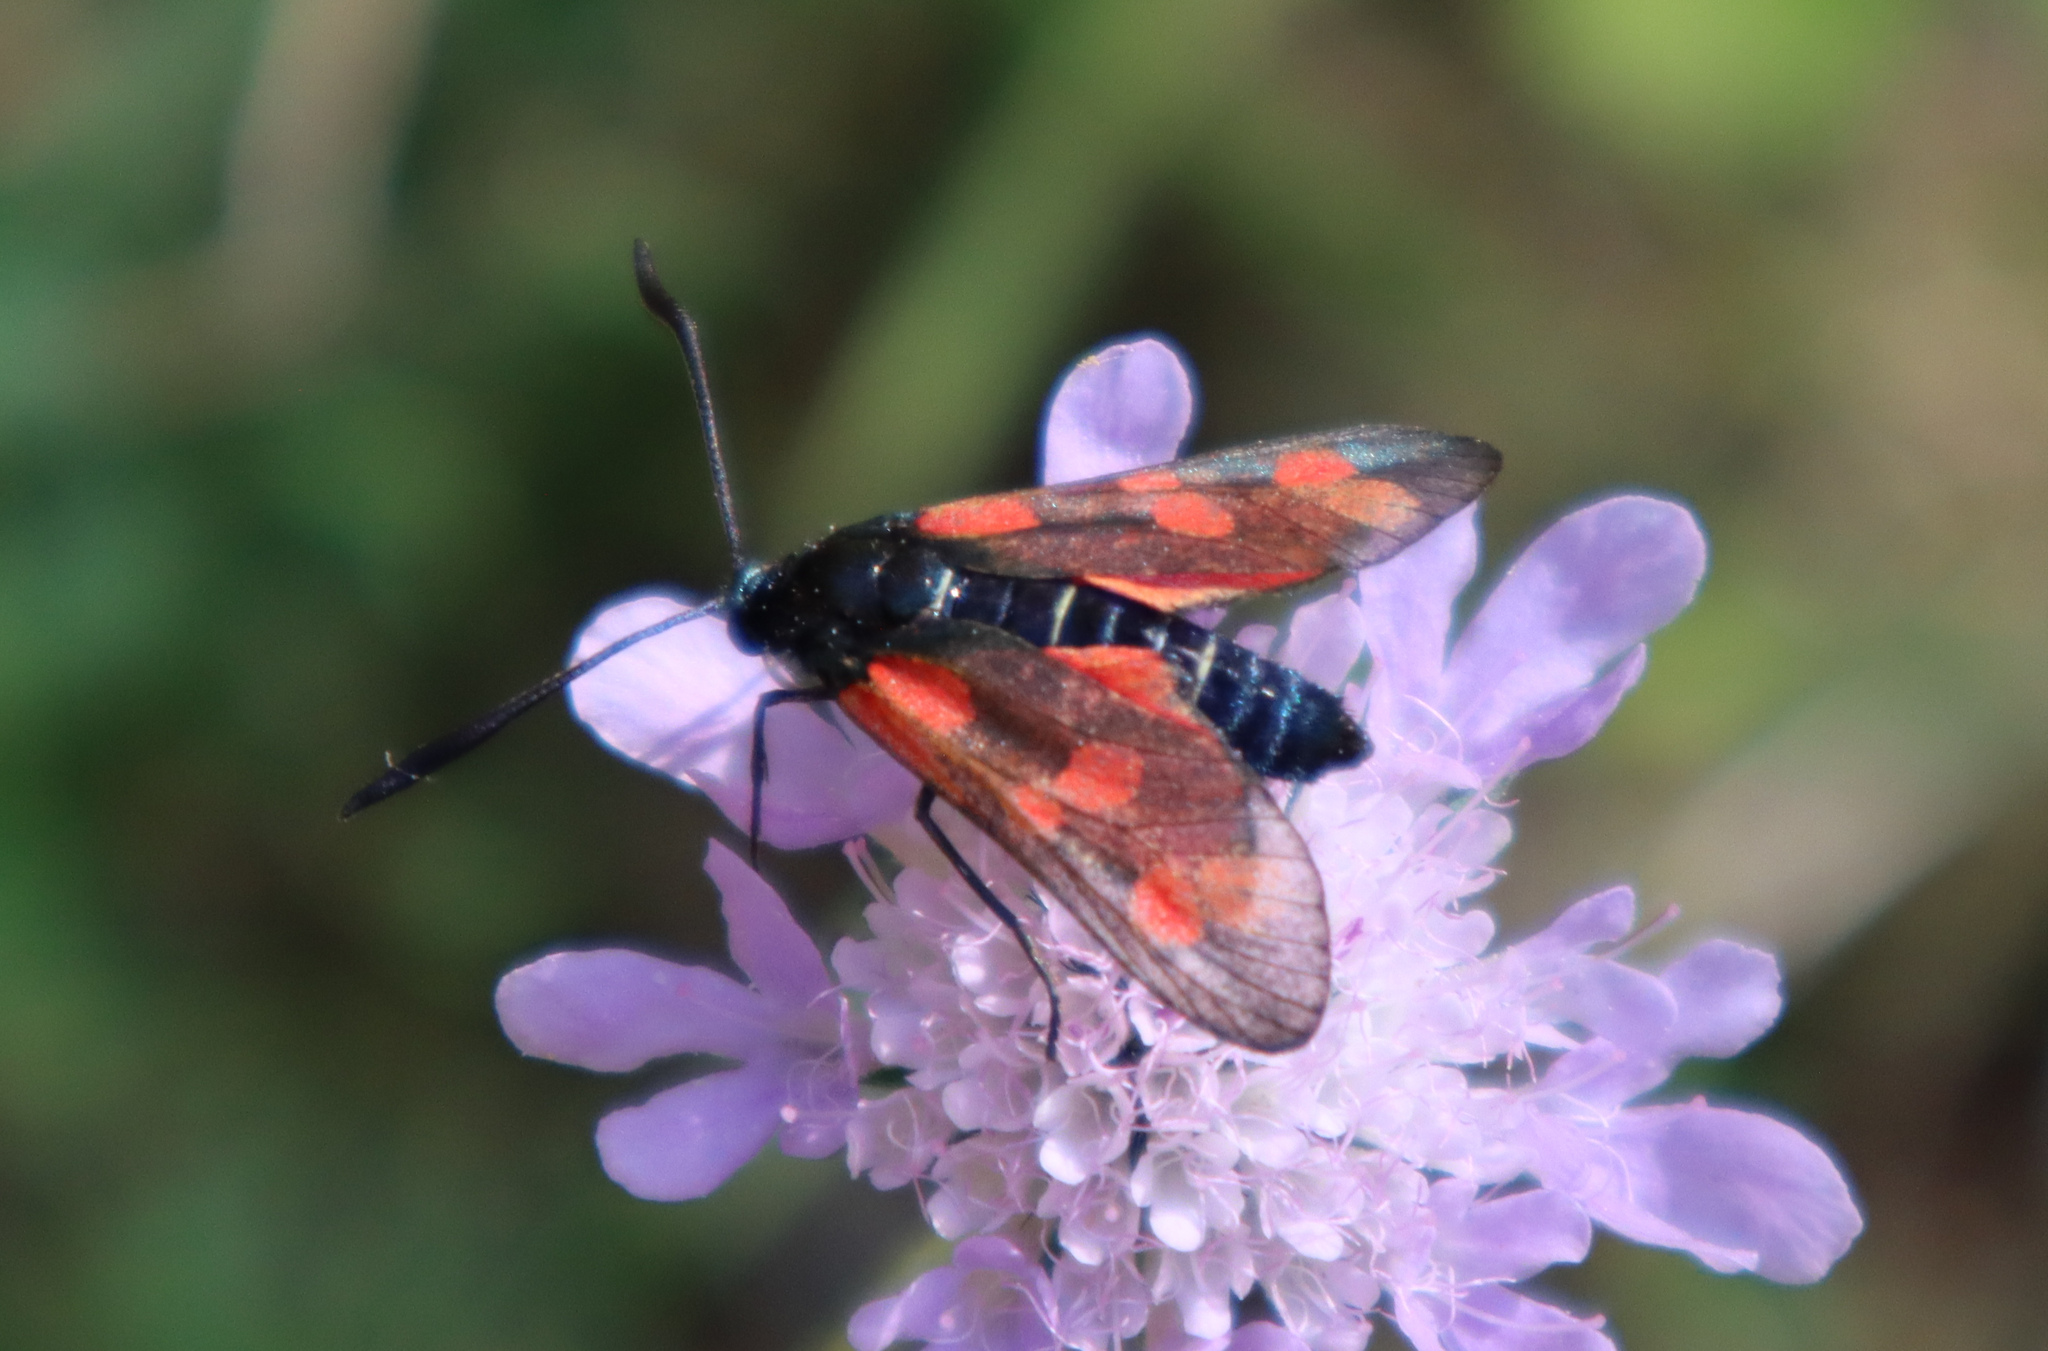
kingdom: Animalia
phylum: Arthropoda
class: Insecta
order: Lepidoptera
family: Zygaenidae
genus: Zygaena
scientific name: Zygaena filipendulae
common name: Six-spot burnet
